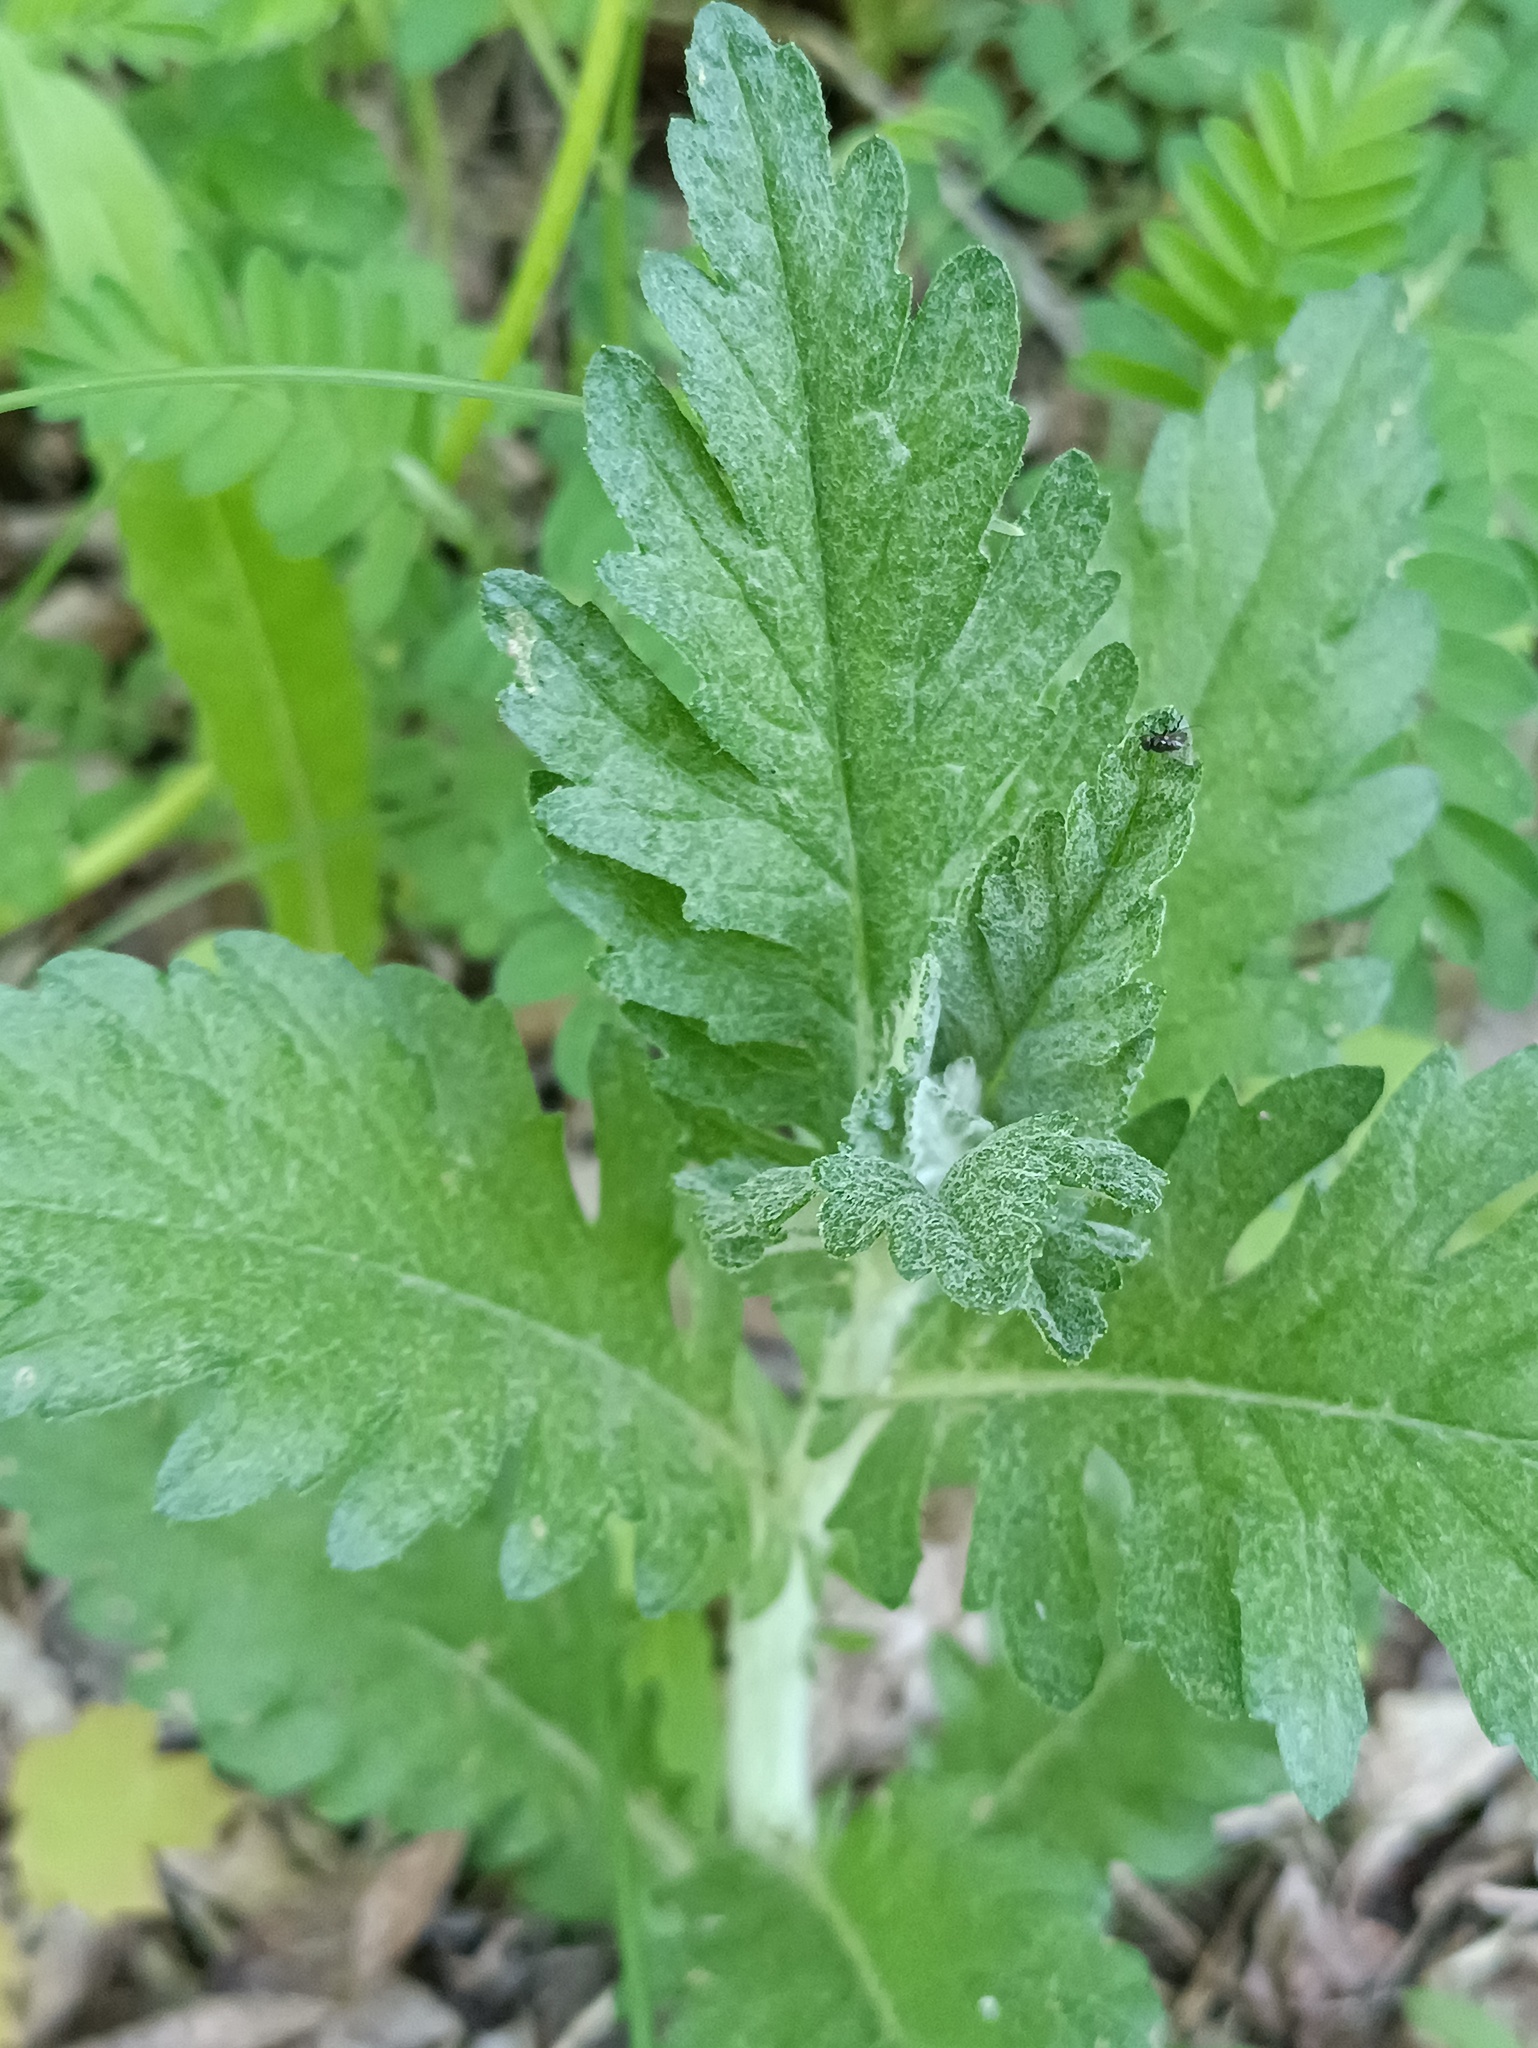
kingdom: Plantae
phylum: Tracheophyta
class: Magnoliopsida
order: Asterales
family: Asteraceae
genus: Jacobaea
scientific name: Jacobaea erucifolia
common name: Hoary ragwort
